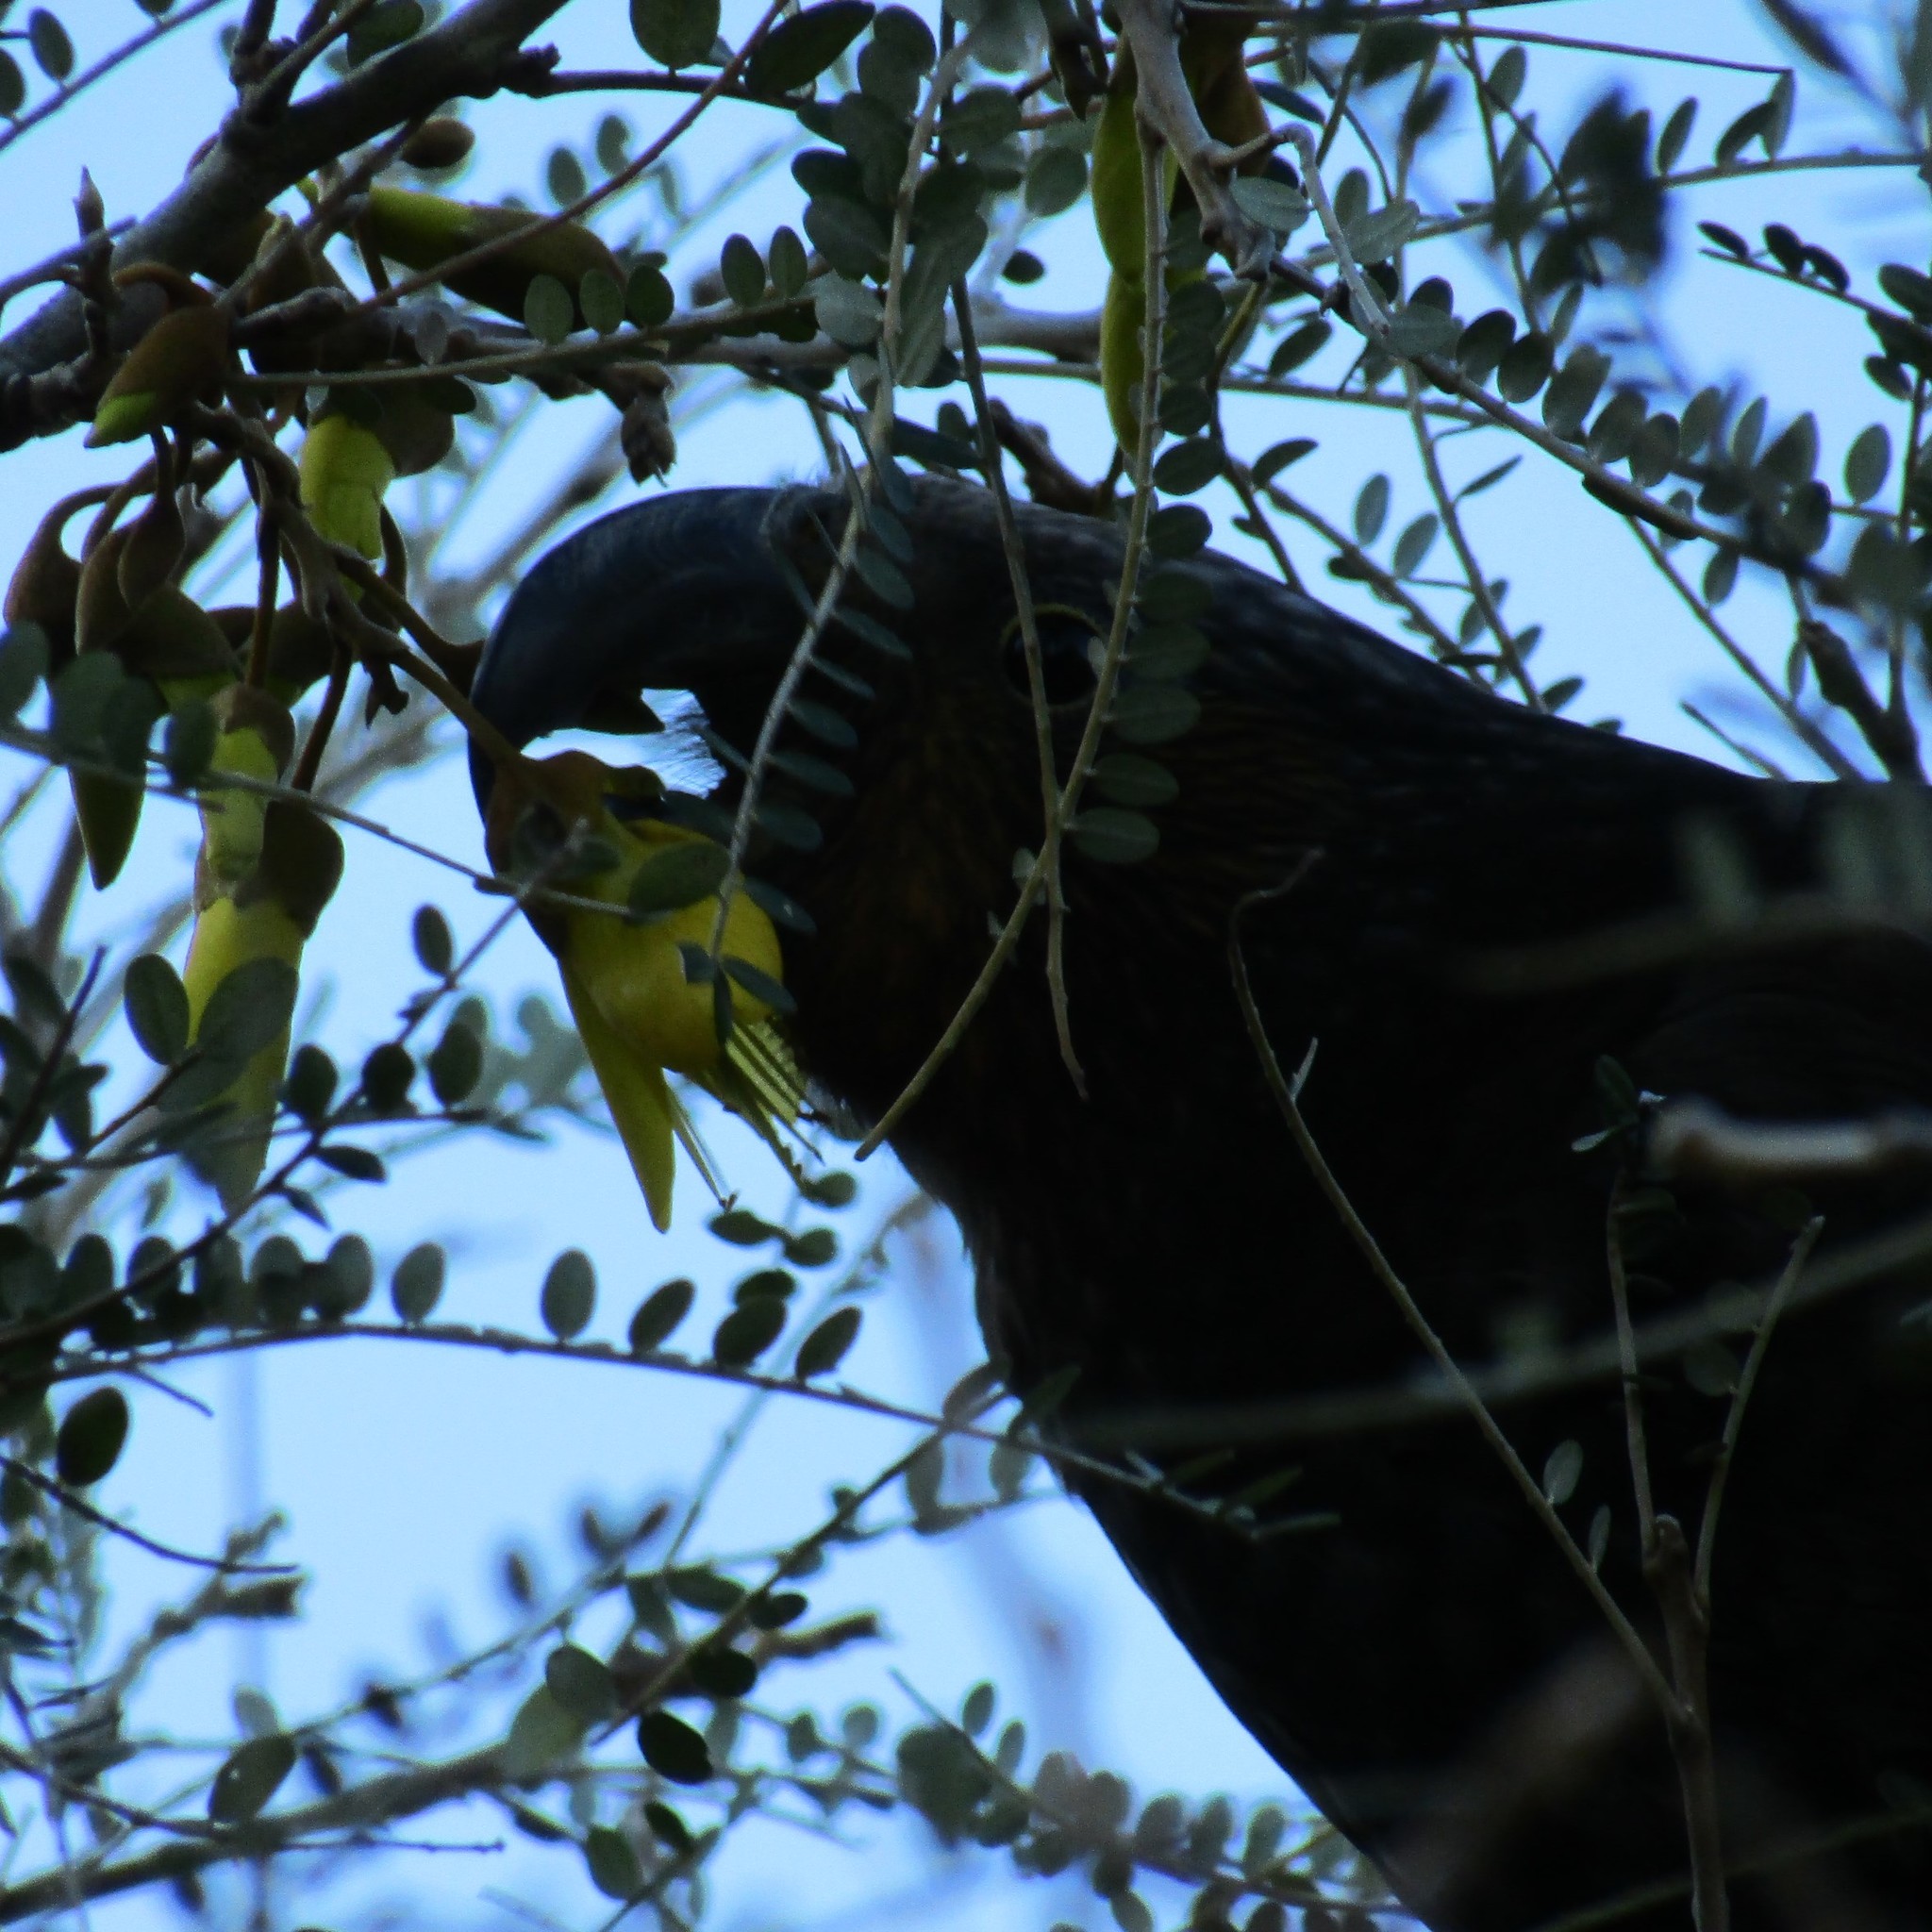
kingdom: Animalia
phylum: Chordata
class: Aves
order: Psittaciformes
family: Psittacidae
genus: Nestor
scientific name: Nestor meridionalis
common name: New zealand kaka
